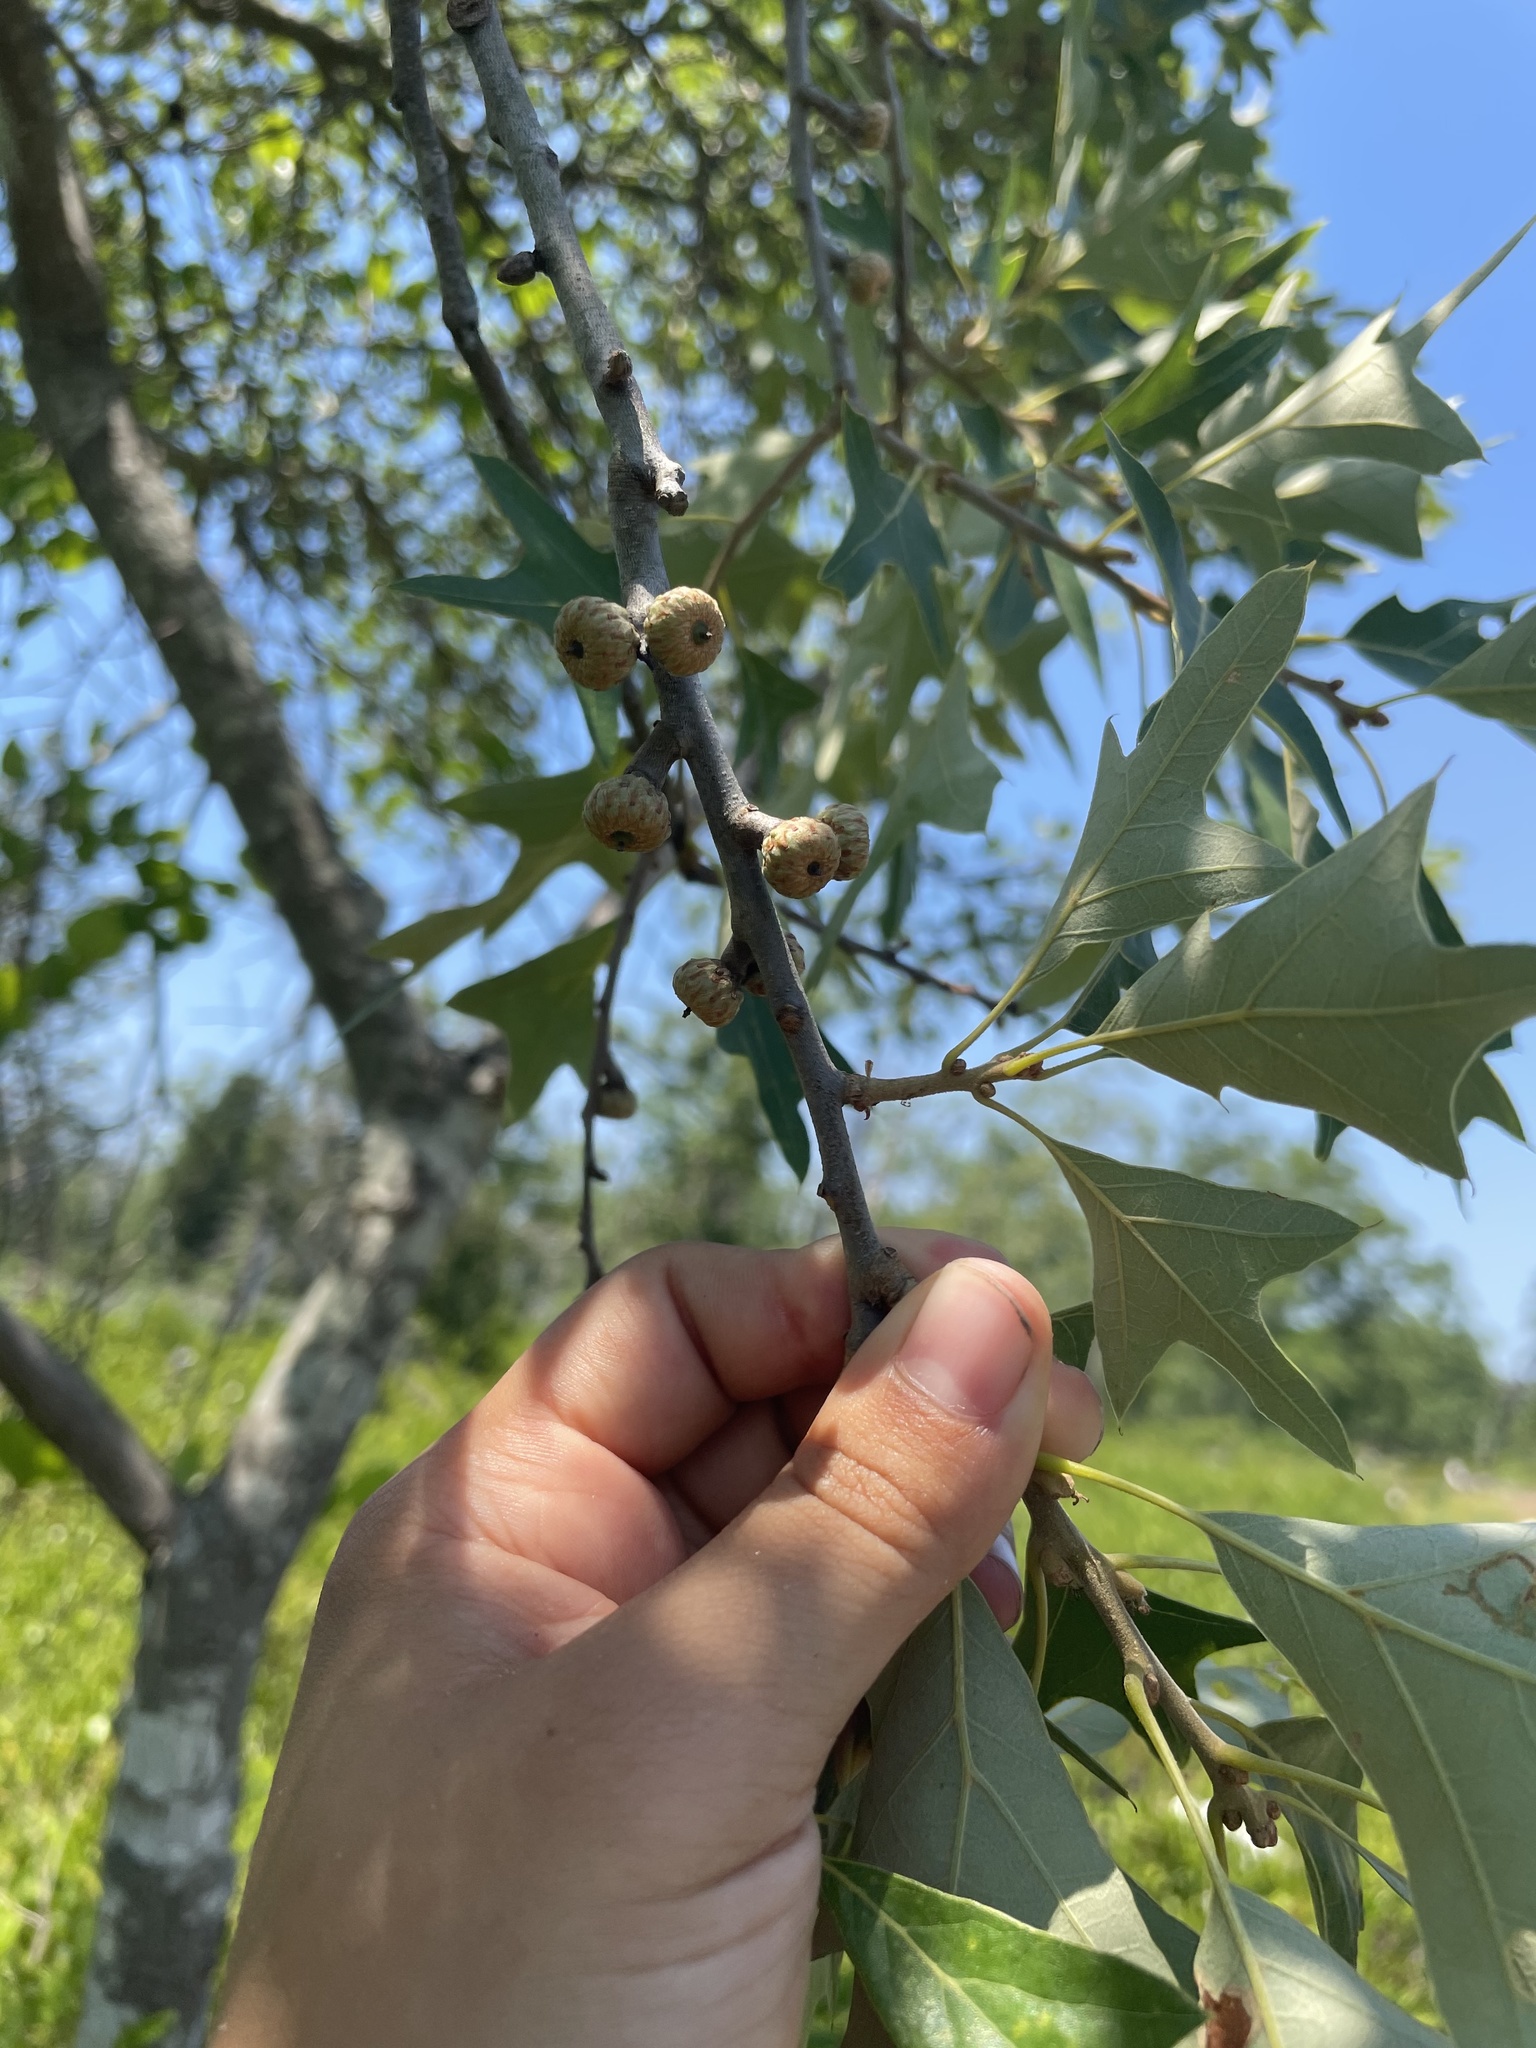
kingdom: Plantae
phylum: Tracheophyta
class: Magnoliopsida
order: Fagales
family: Fagaceae
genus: Quercus
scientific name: Quercus ilicifolia
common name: Bear oak
